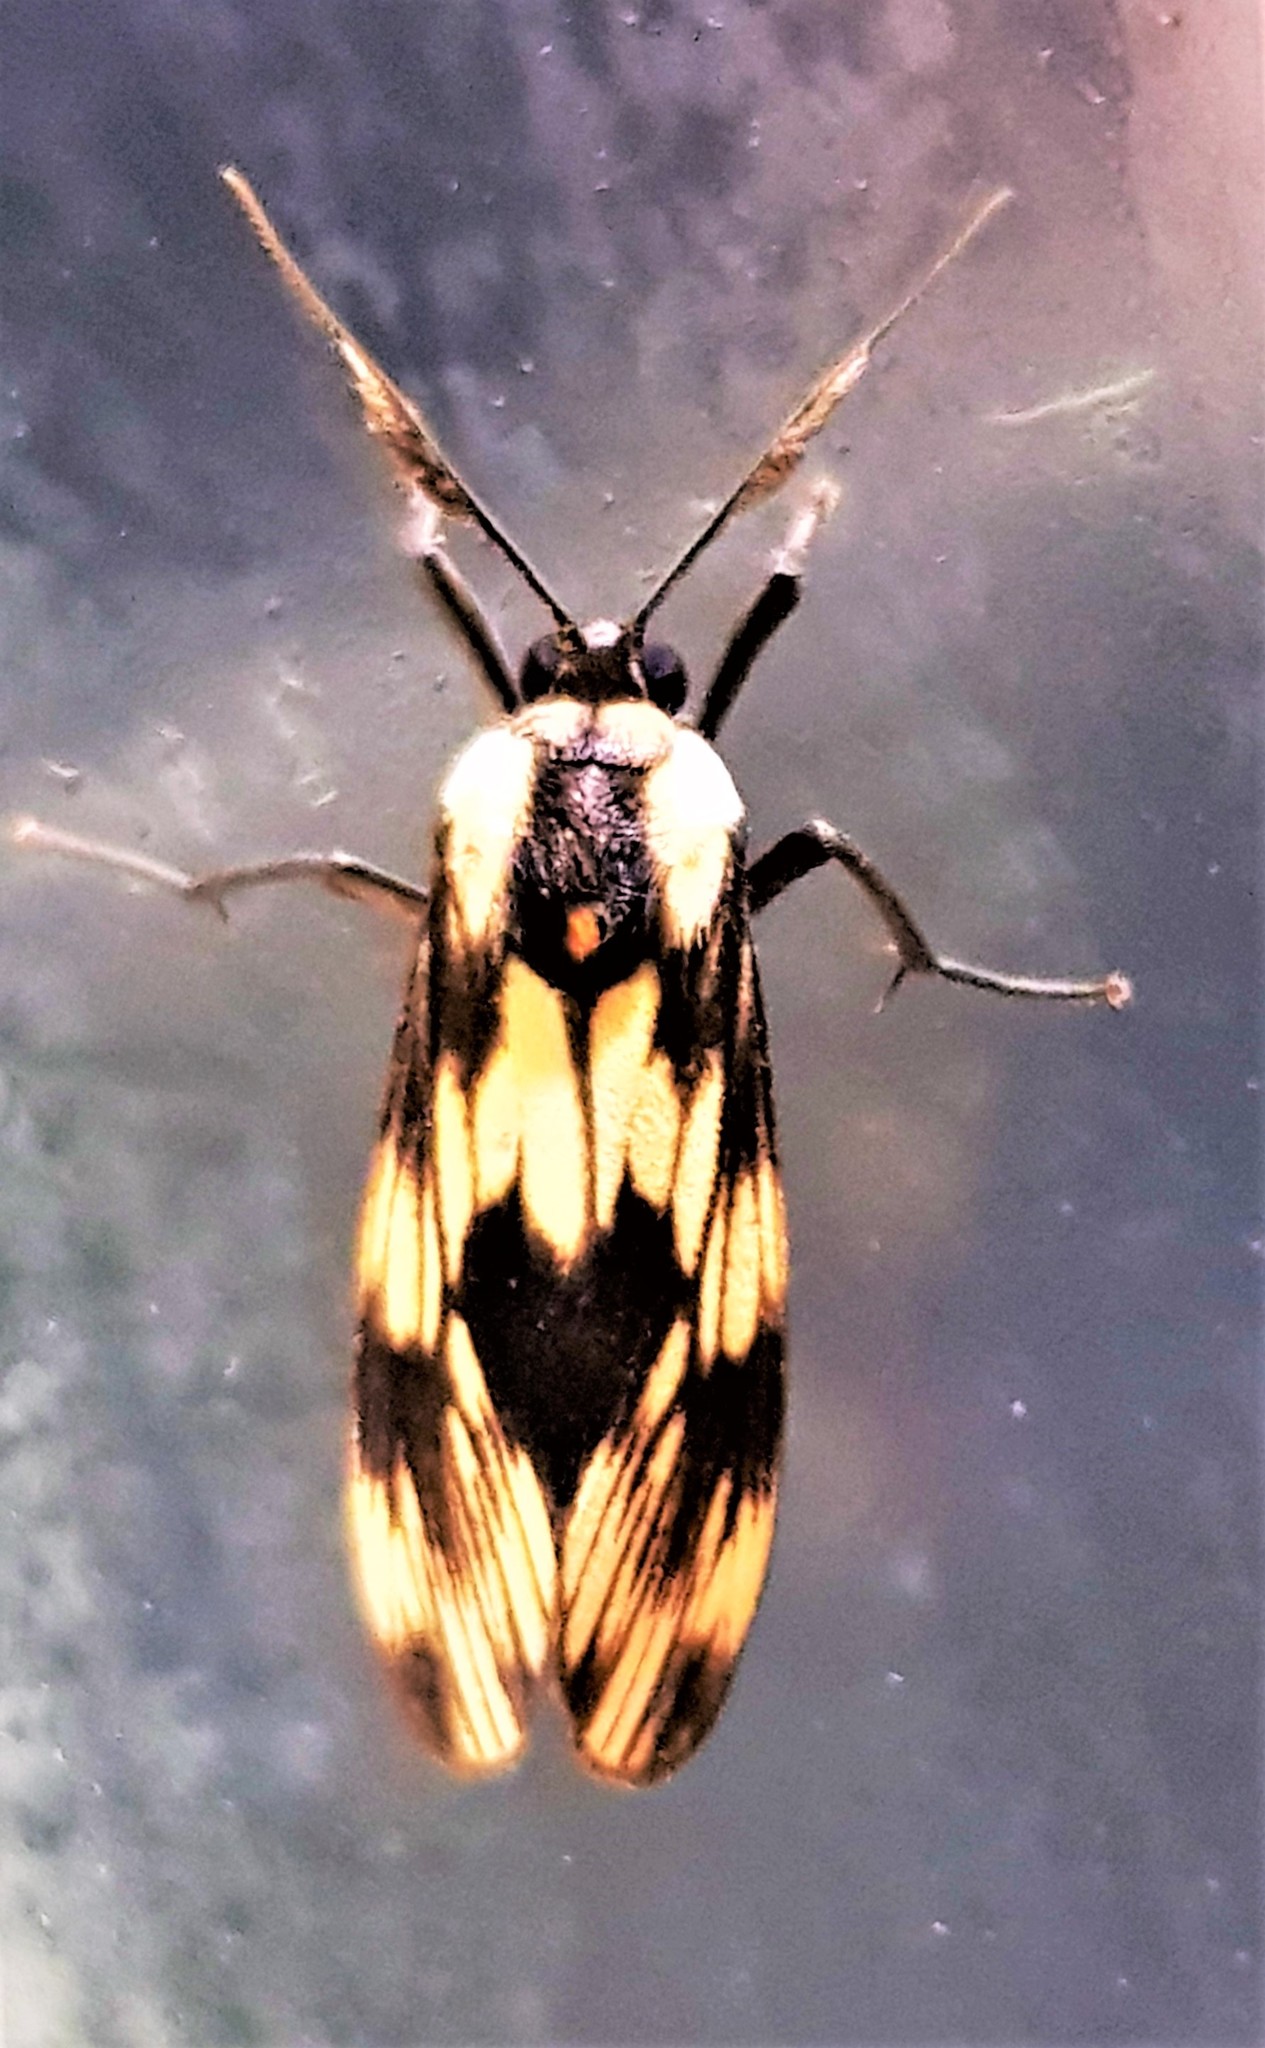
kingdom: Animalia
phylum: Arthropoda
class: Insecta
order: Lepidoptera
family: Erebidae
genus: Ardonea
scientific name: Ardonea tenebrosa
